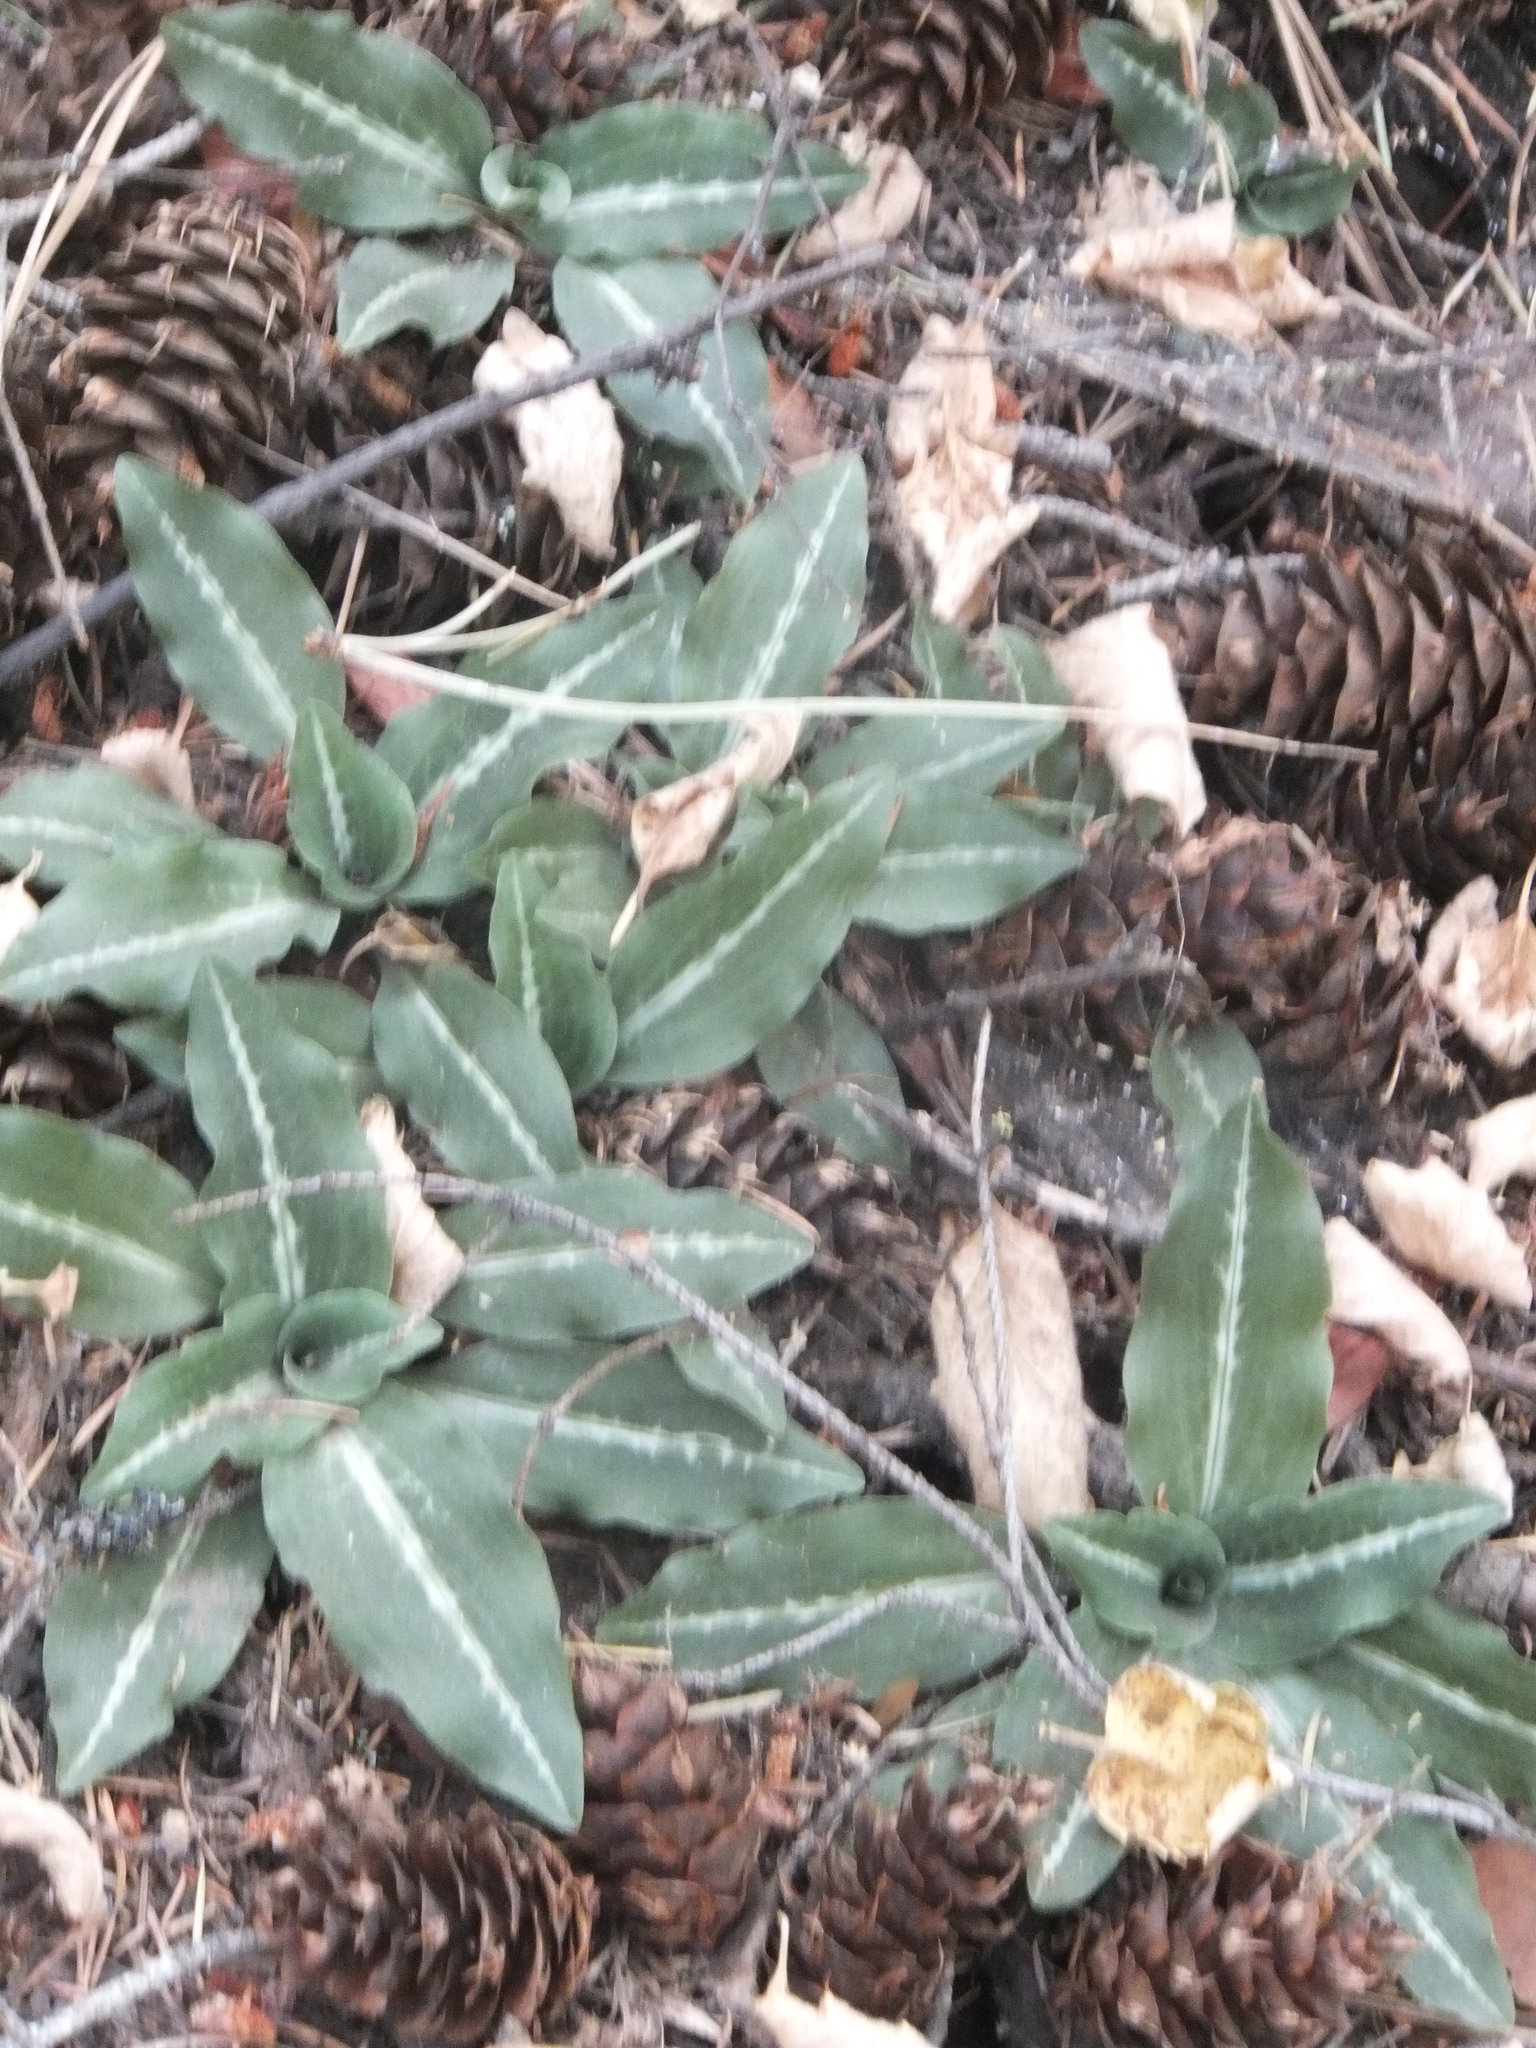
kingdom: Plantae
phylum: Tracheophyta
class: Liliopsida
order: Asparagales
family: Orchidaceae
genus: Goodyera
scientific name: Goodyera oblongifolia
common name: Giant rattlesnake-plantain
